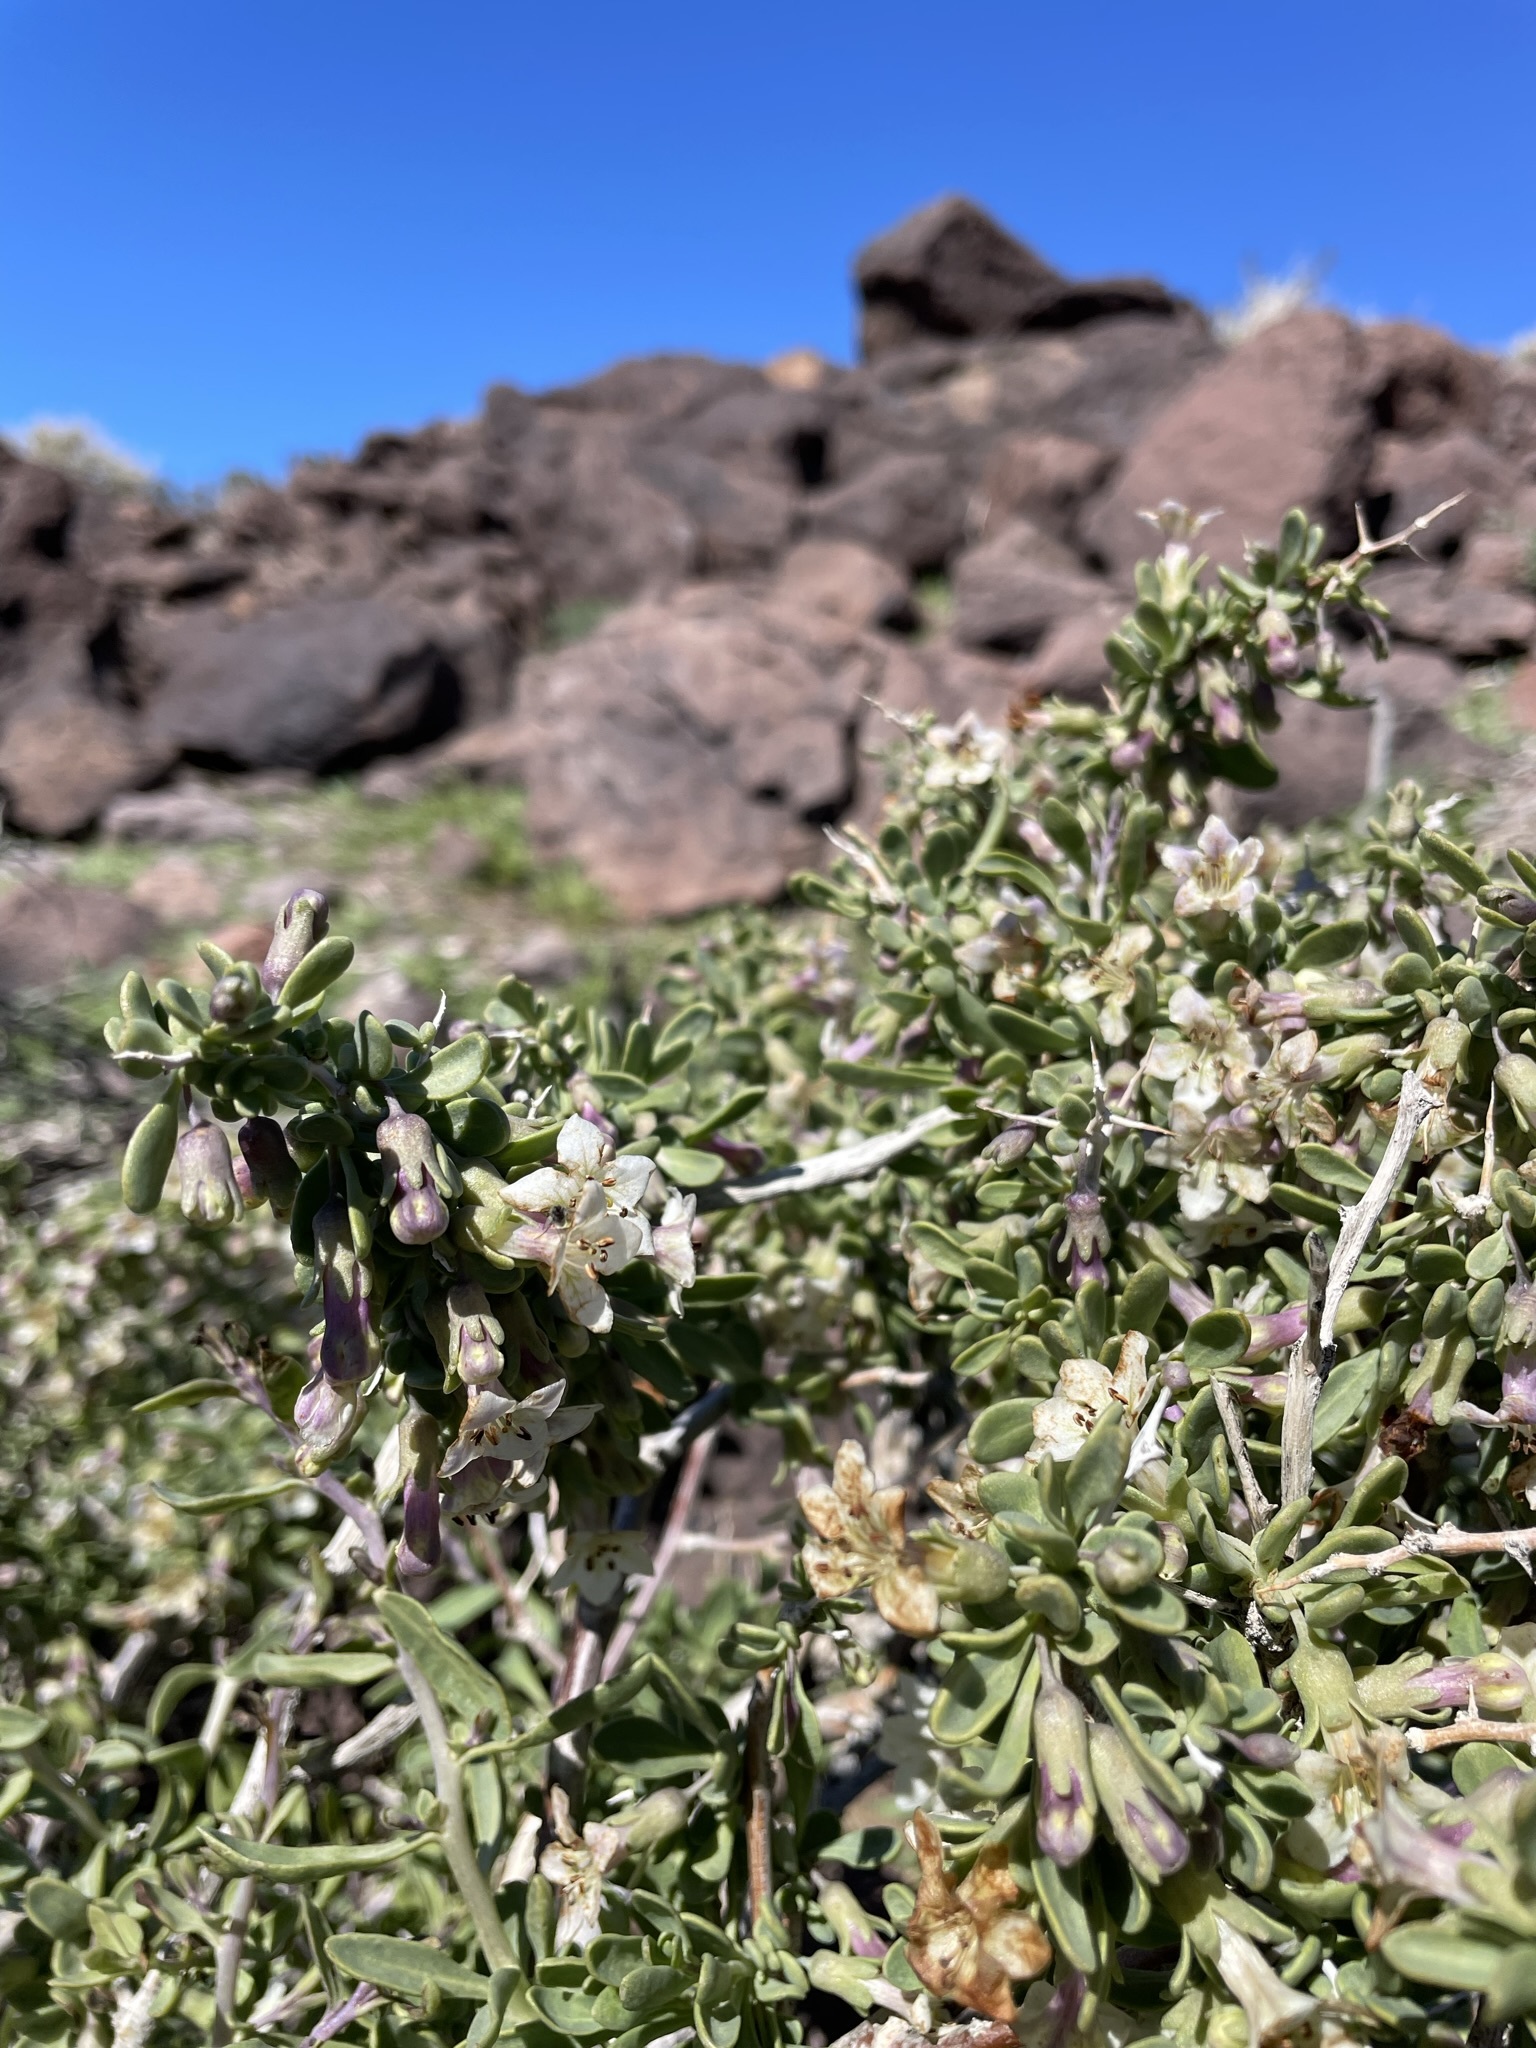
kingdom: Plantae
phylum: Tracheophyta
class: Magnoliopsida
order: Solanales
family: Solanaceae
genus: Lycium
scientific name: Lycium pallidum
